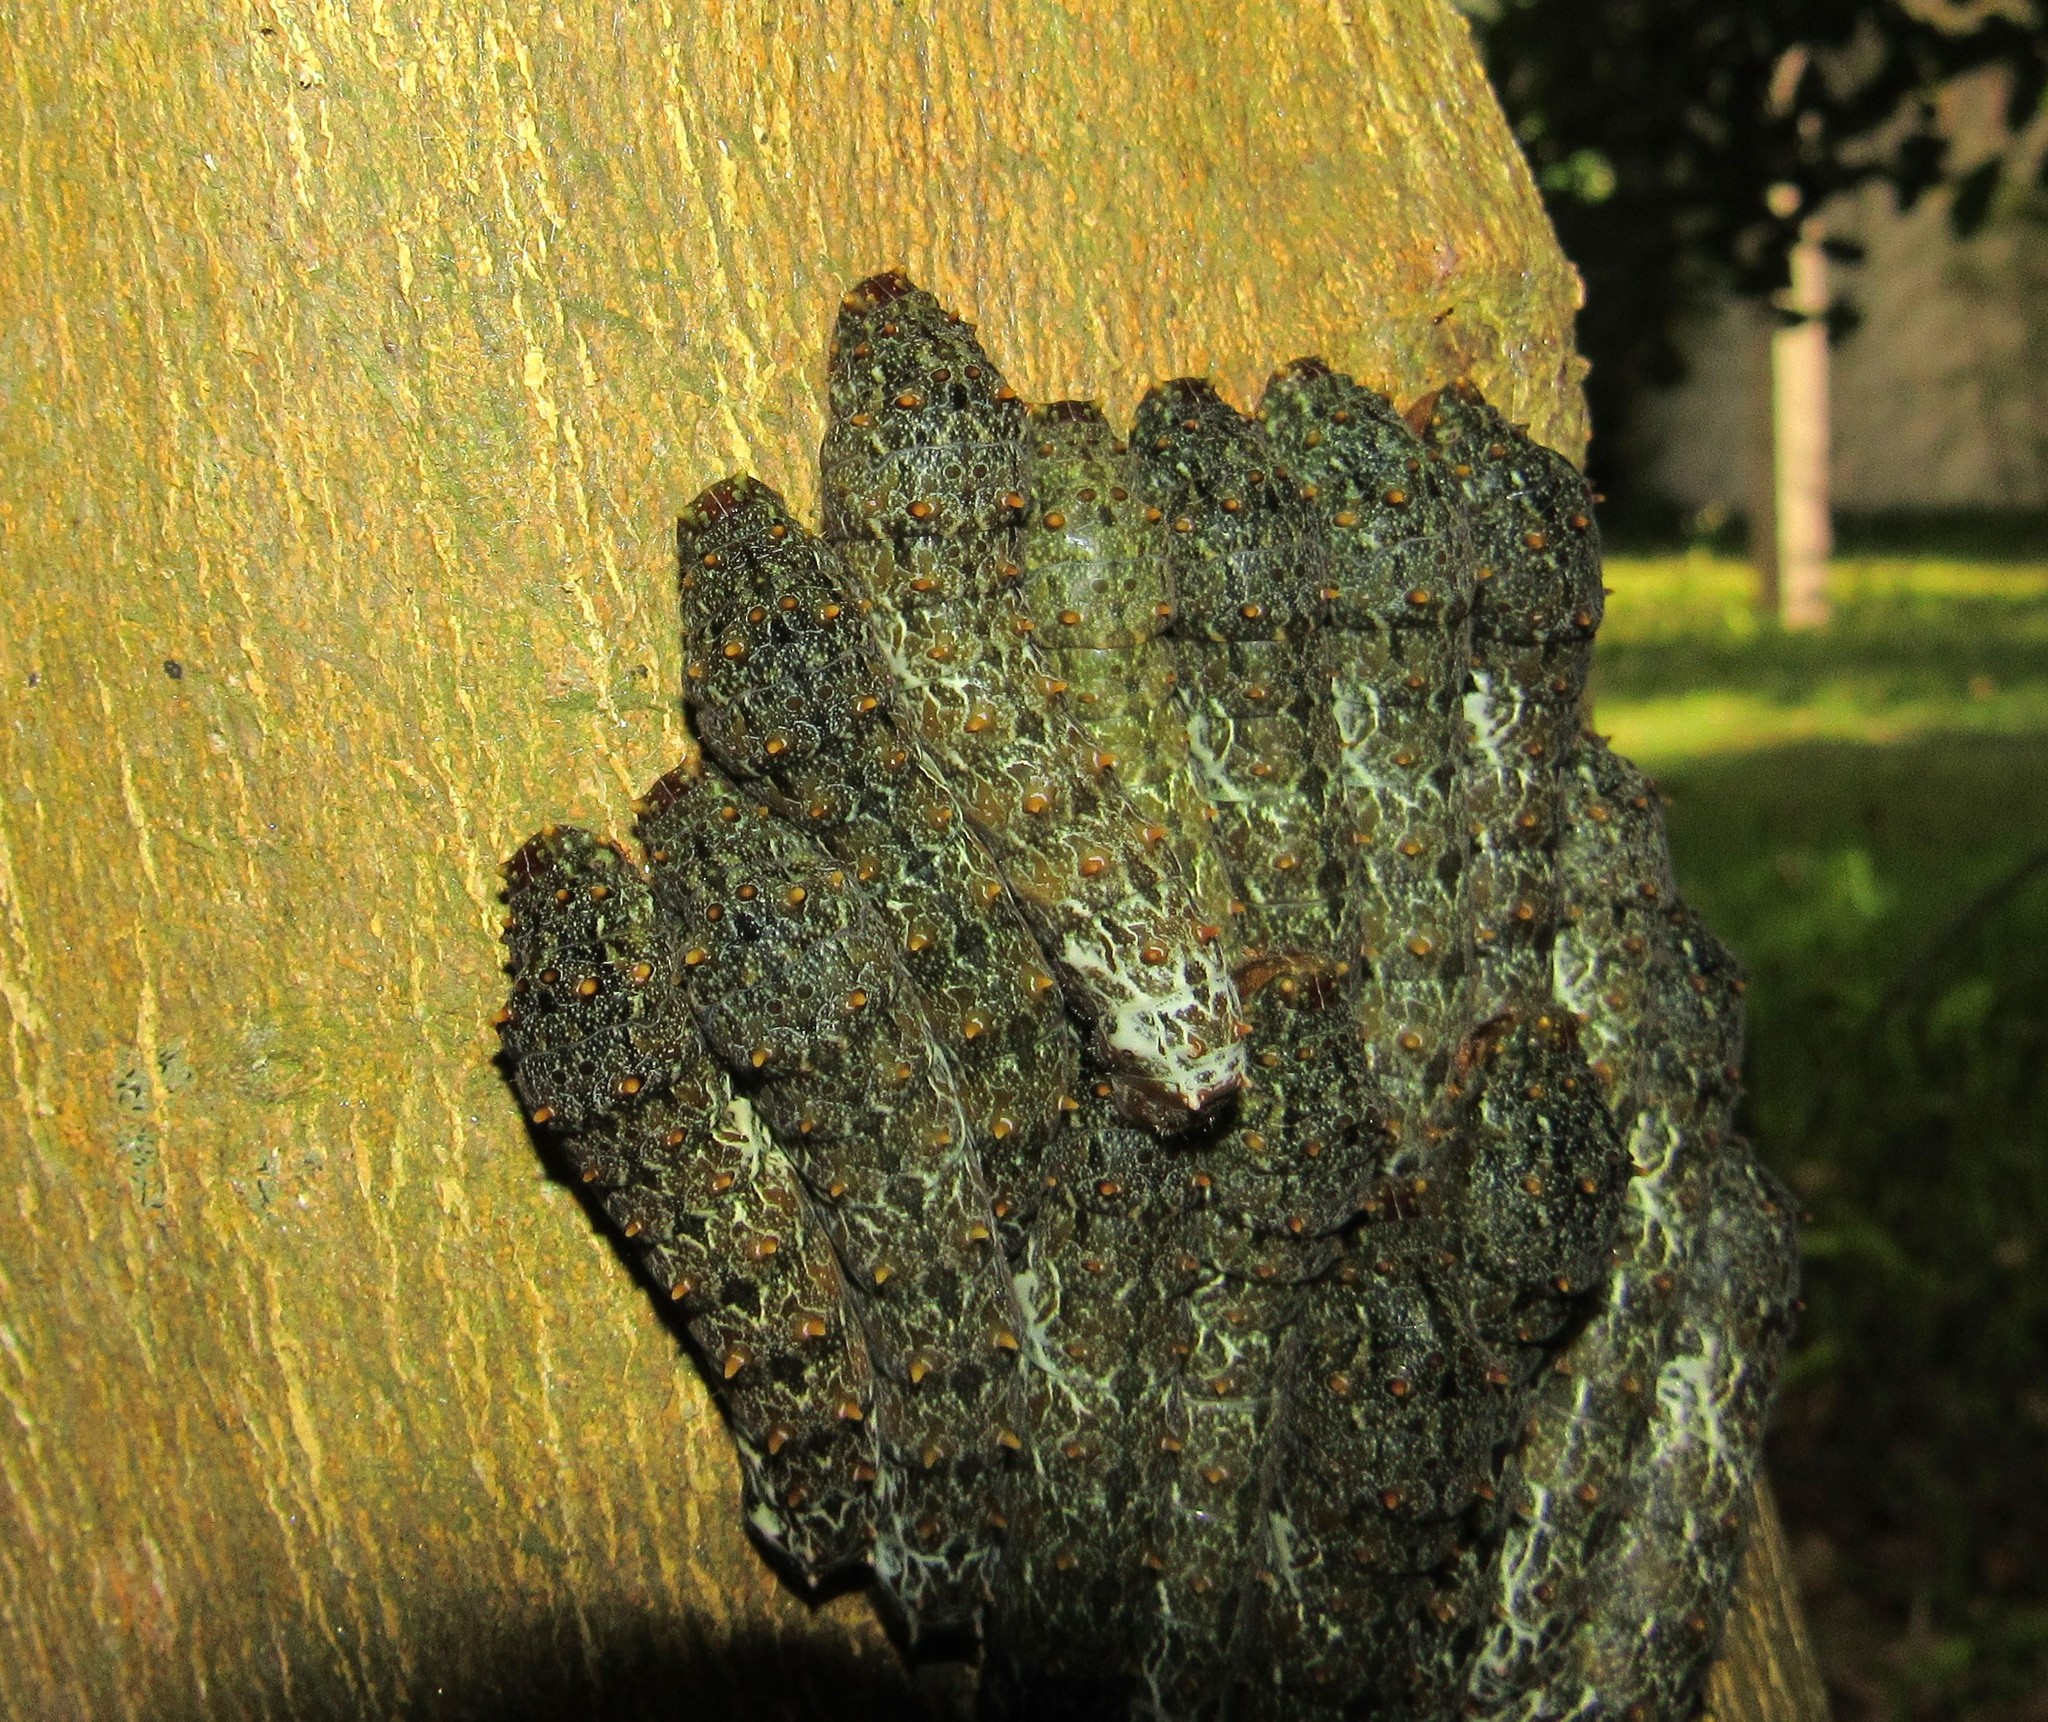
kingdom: Animalia
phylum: Arthropoda
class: Insecta
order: Lepidoptera
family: Papilionidae
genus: Papilio
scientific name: Papilio anchisiades
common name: Idaes swallowtail
